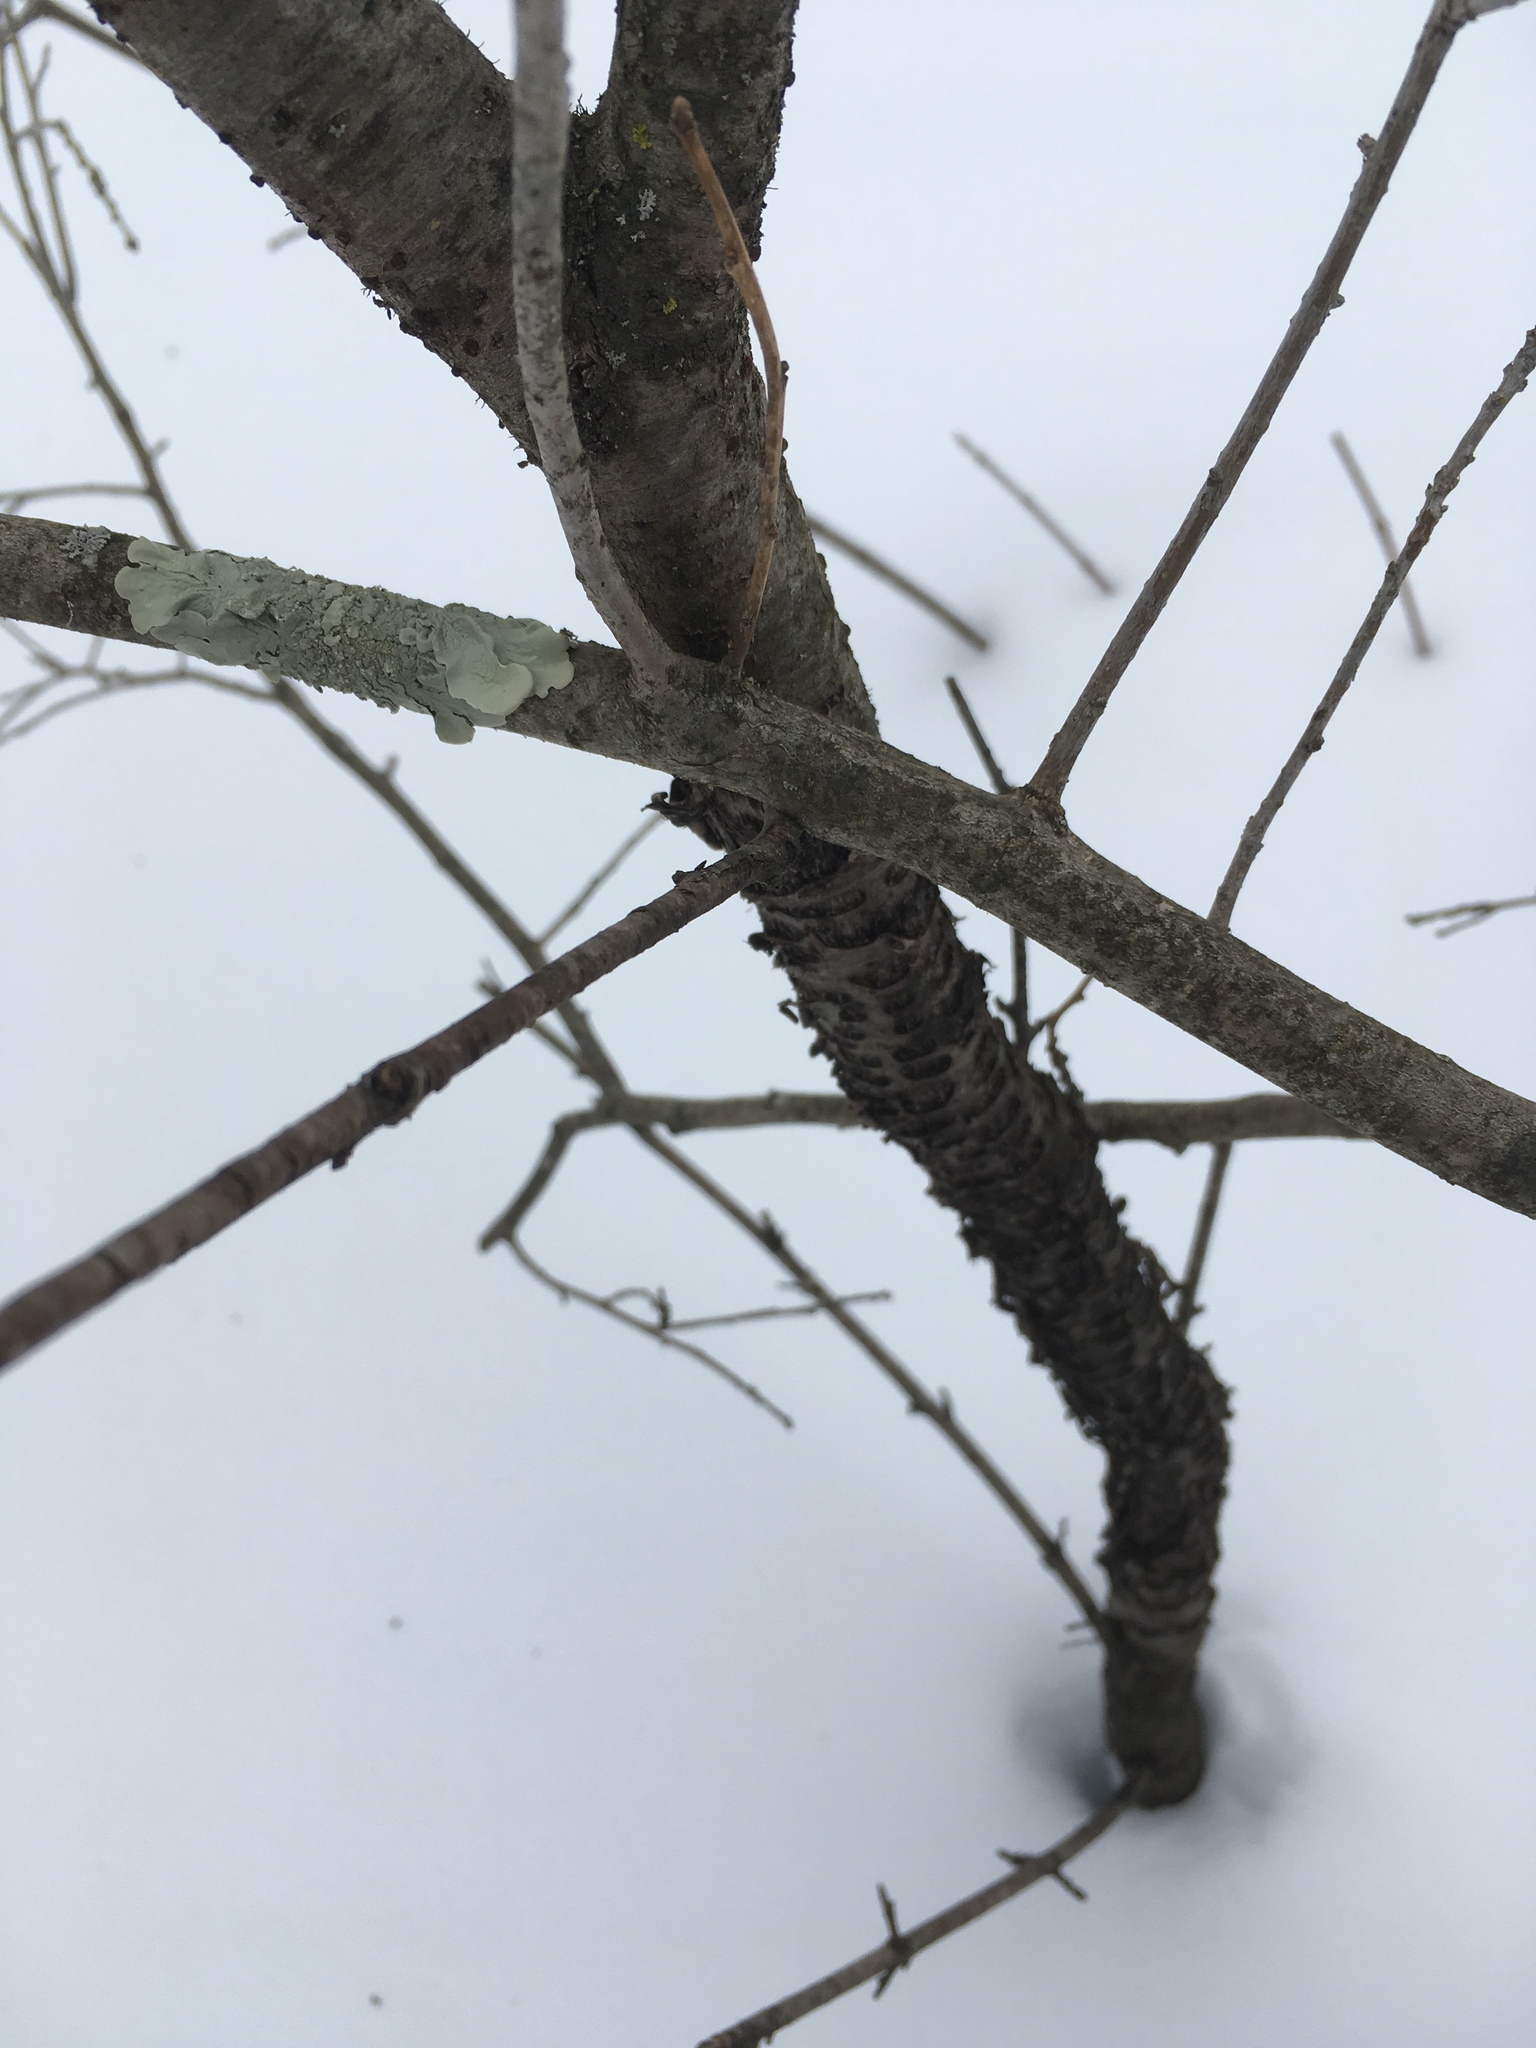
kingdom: Plantae
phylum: Tracheophyta
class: Magnoliopsida
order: Rosales
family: Rhamnaceae
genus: Rhamnus
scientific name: Rhamnus cathartica
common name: Common buckthorn
